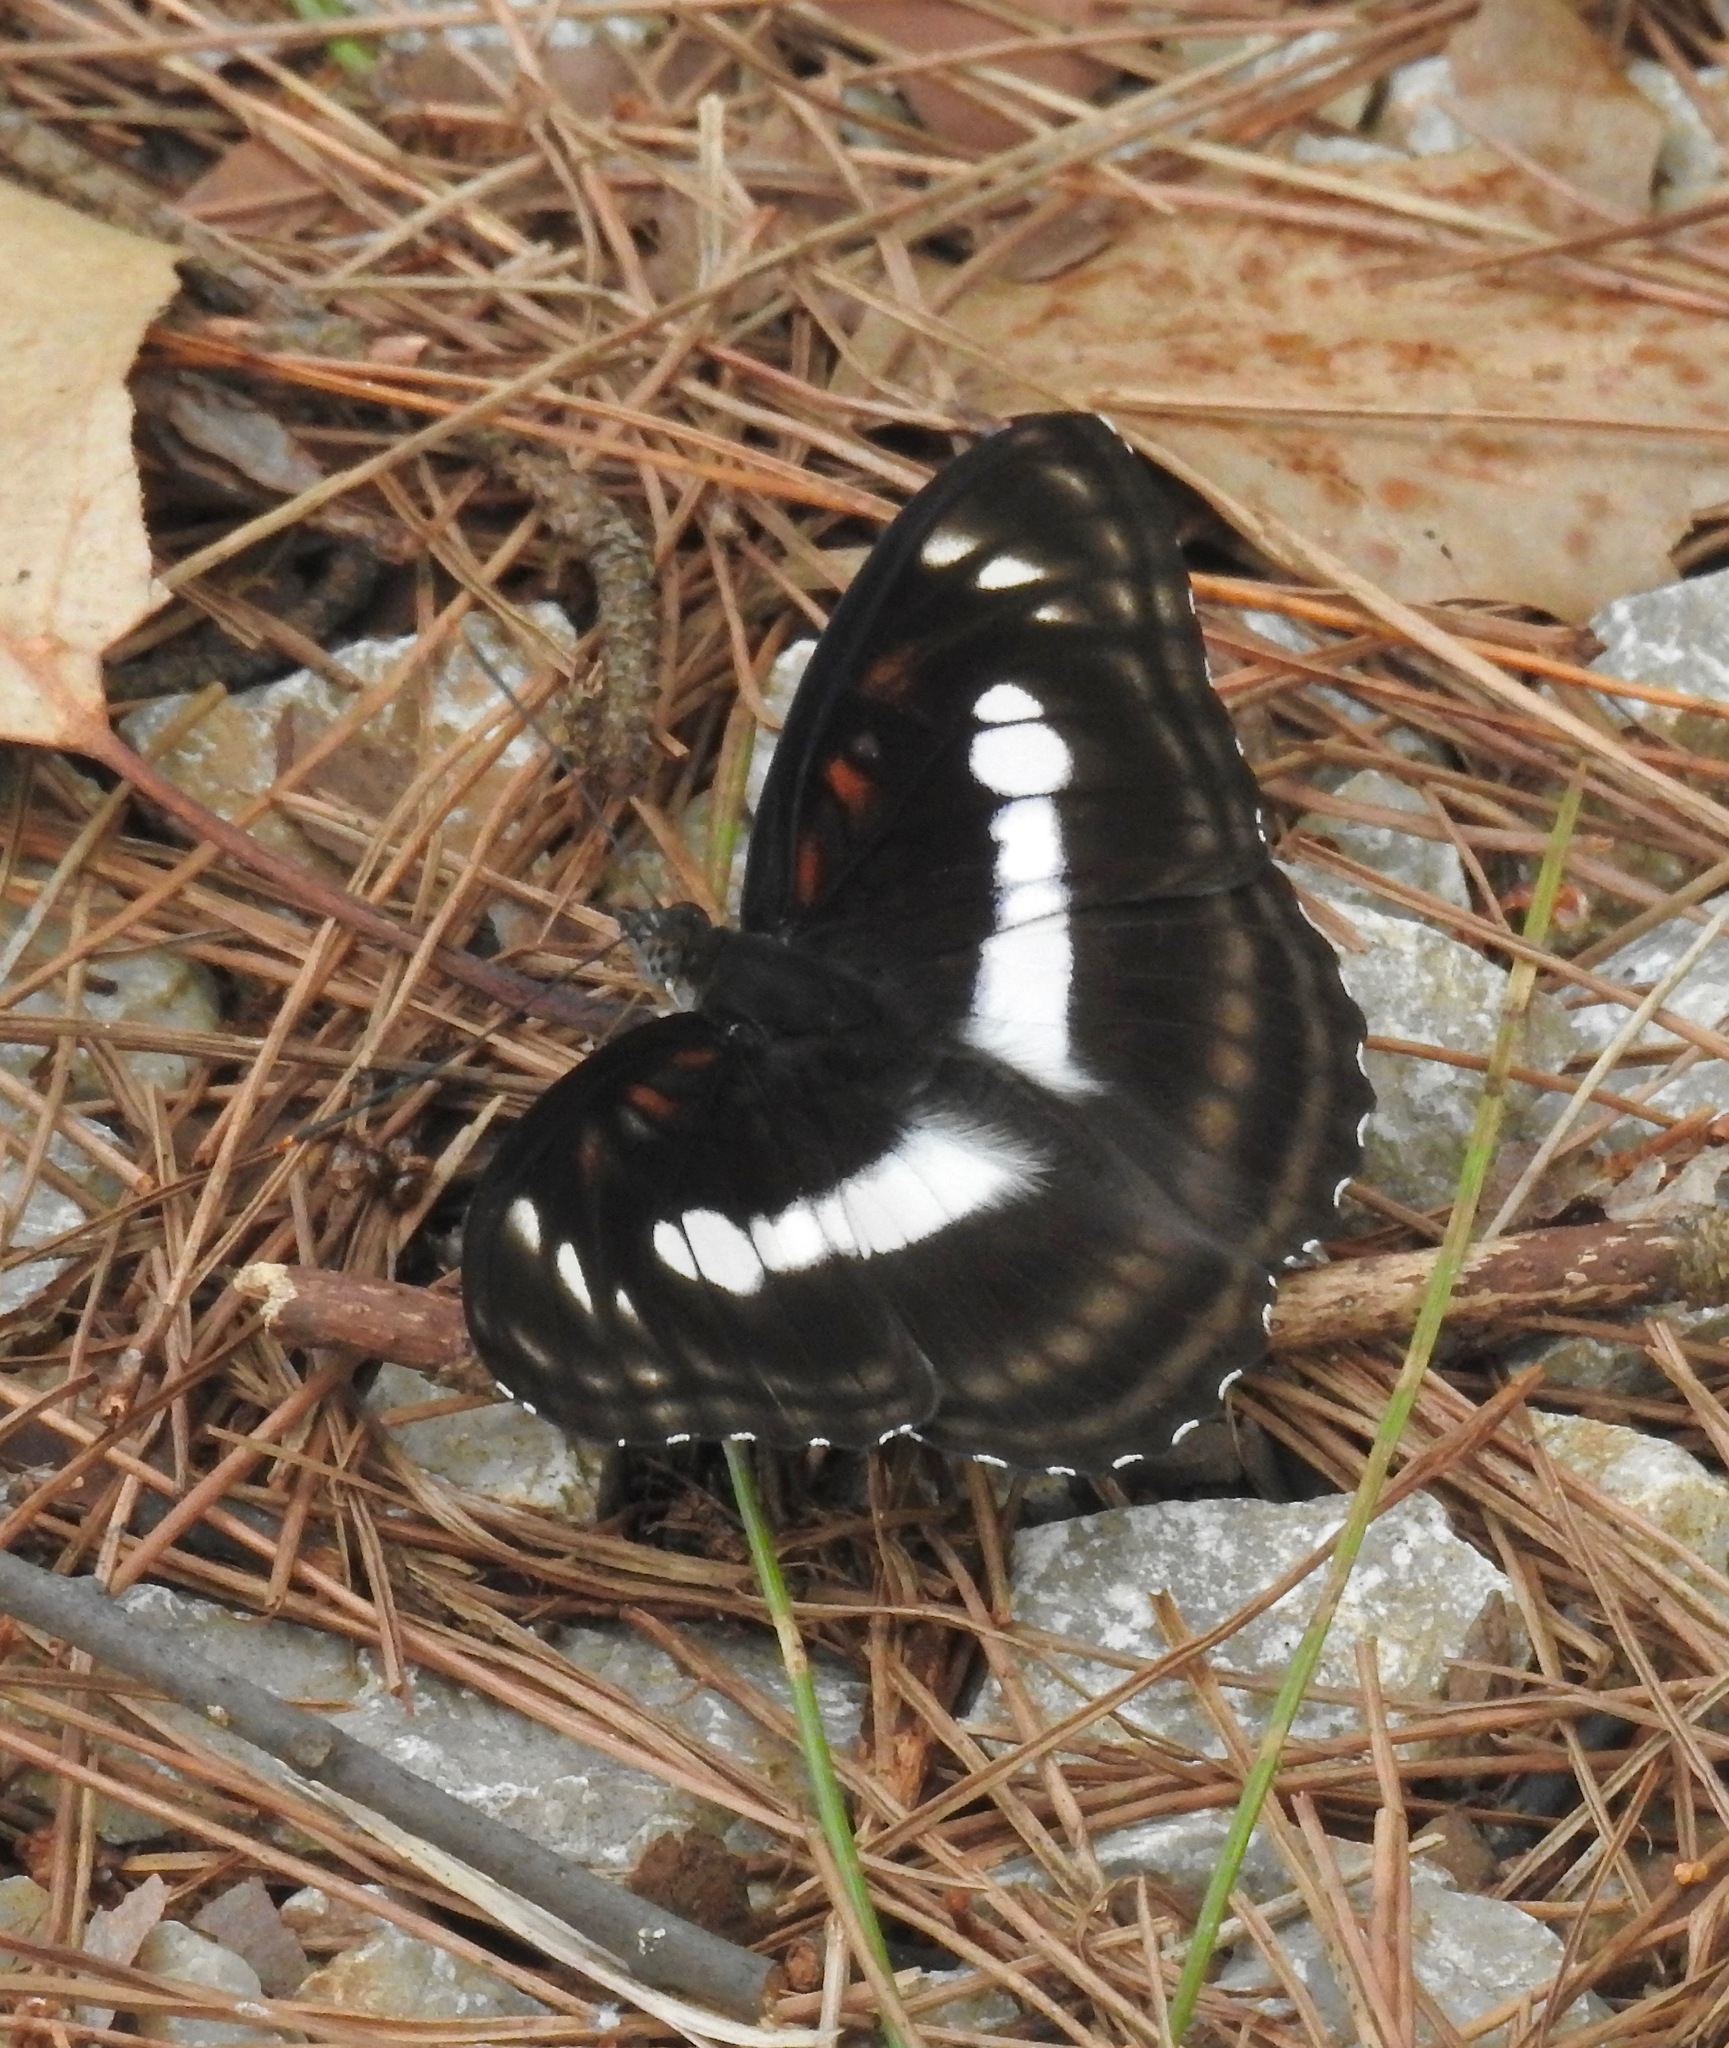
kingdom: Animalia
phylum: Arthropoda
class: Insecta
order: Lepidoptera
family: Nymphalidae
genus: Parathyma
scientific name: Parathyma selenophora
